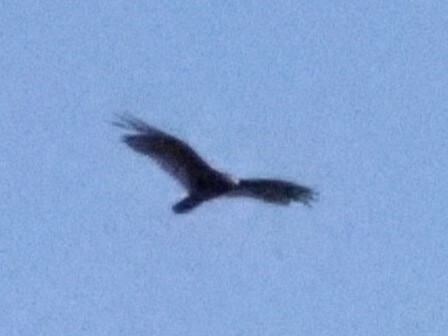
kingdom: Animalia
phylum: Chordata
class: Aves
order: Accipitriformes
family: Cathartidae
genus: Cathartes
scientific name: Cathartes aura
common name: Turkey vulture
